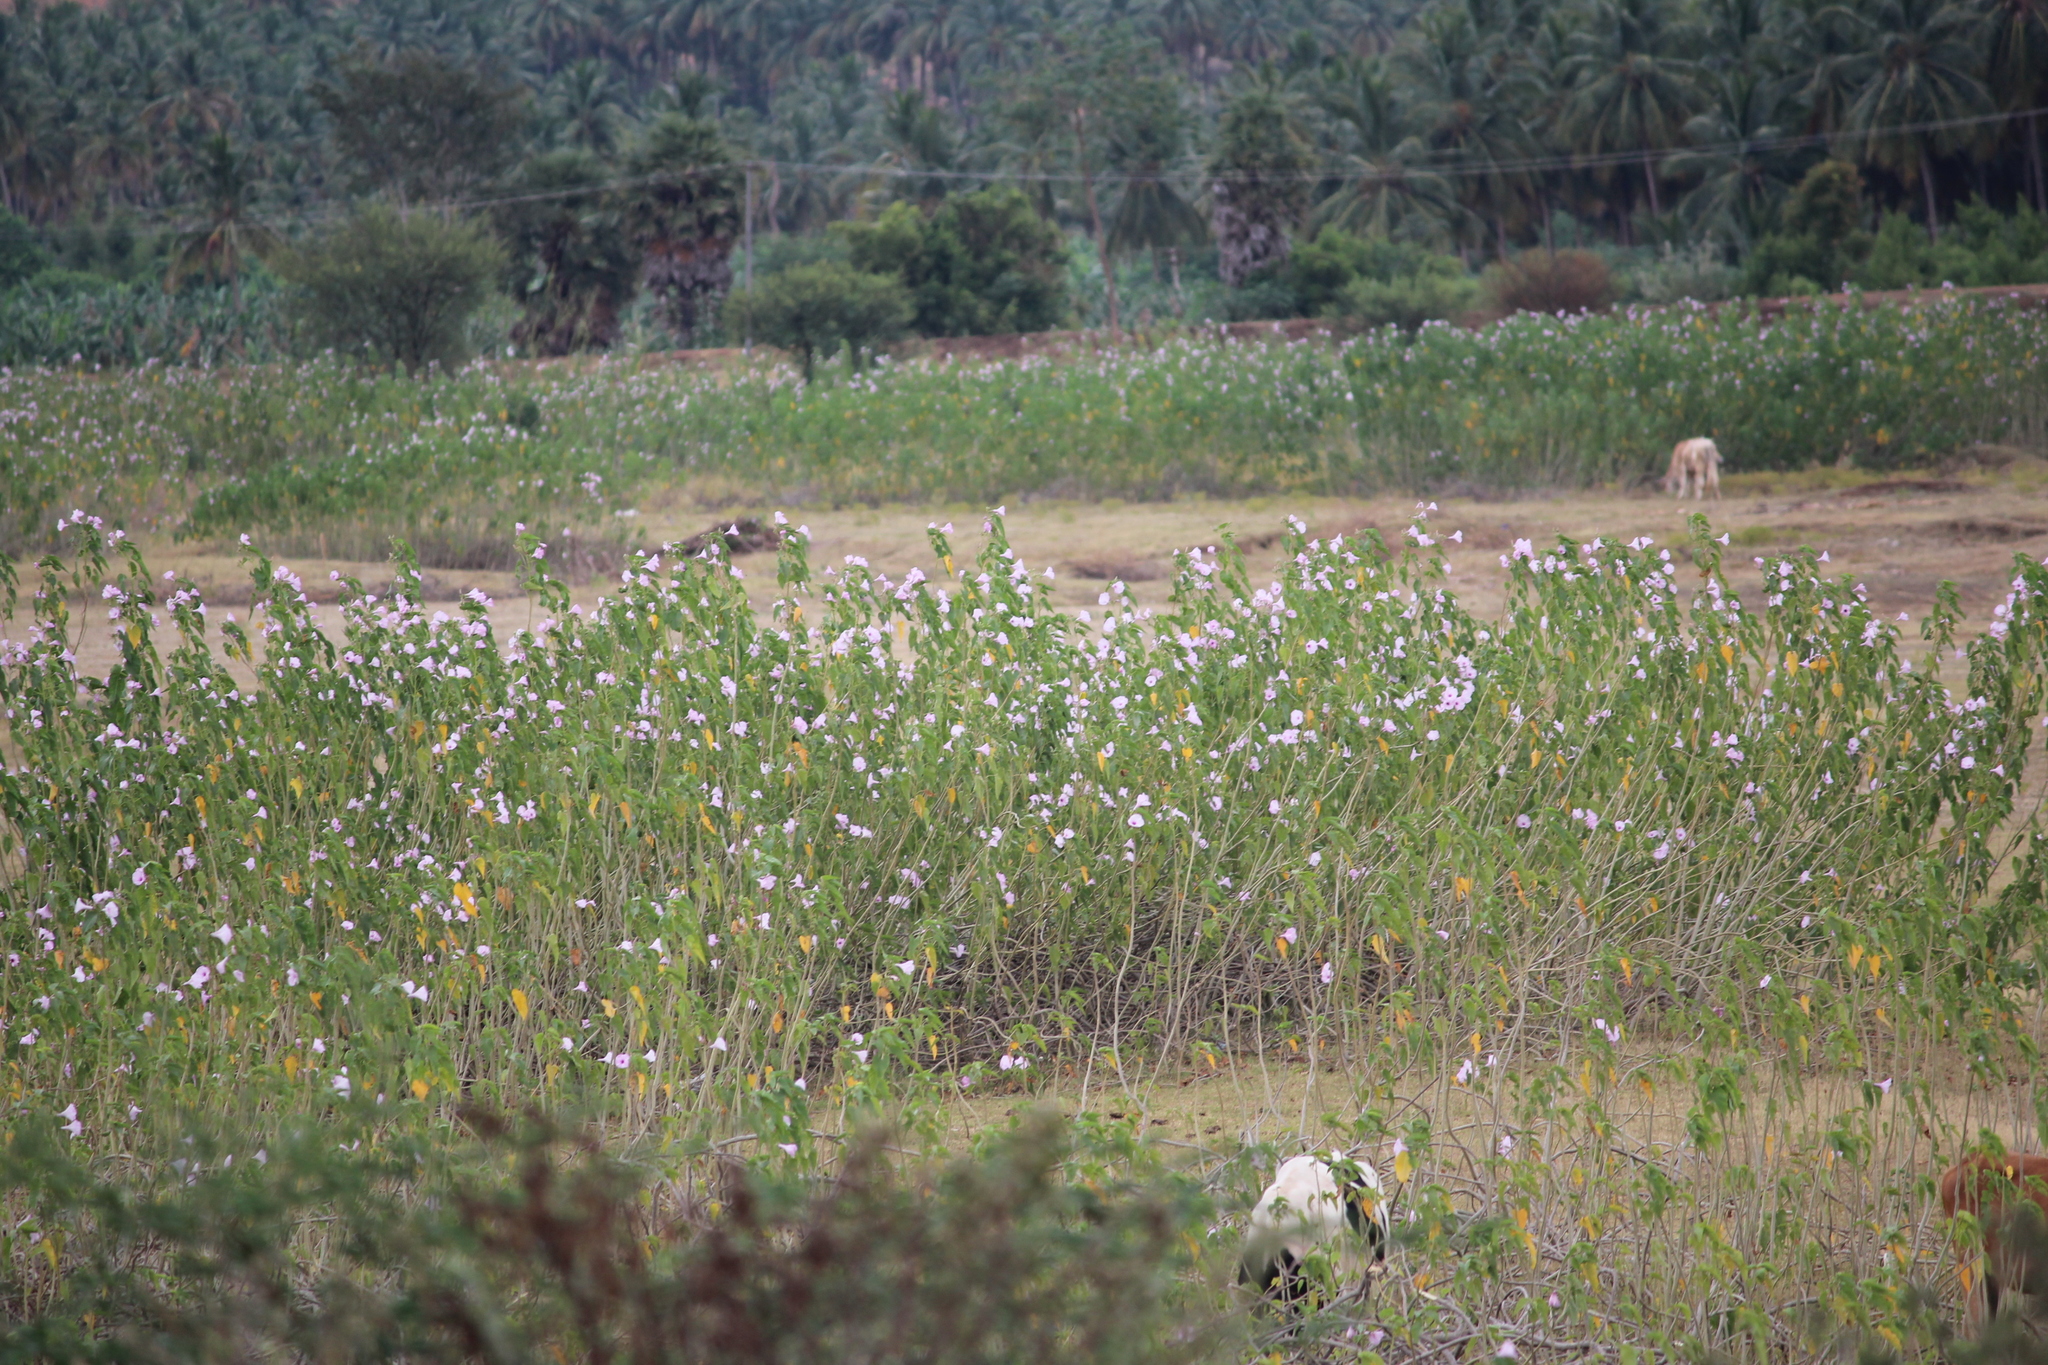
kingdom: Plantae
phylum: Tracheophyta
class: Magnoliopsida
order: Solanales
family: Convolvulaceae
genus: Ipomoea
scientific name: Ipomoea carnea
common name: Morning-glory
